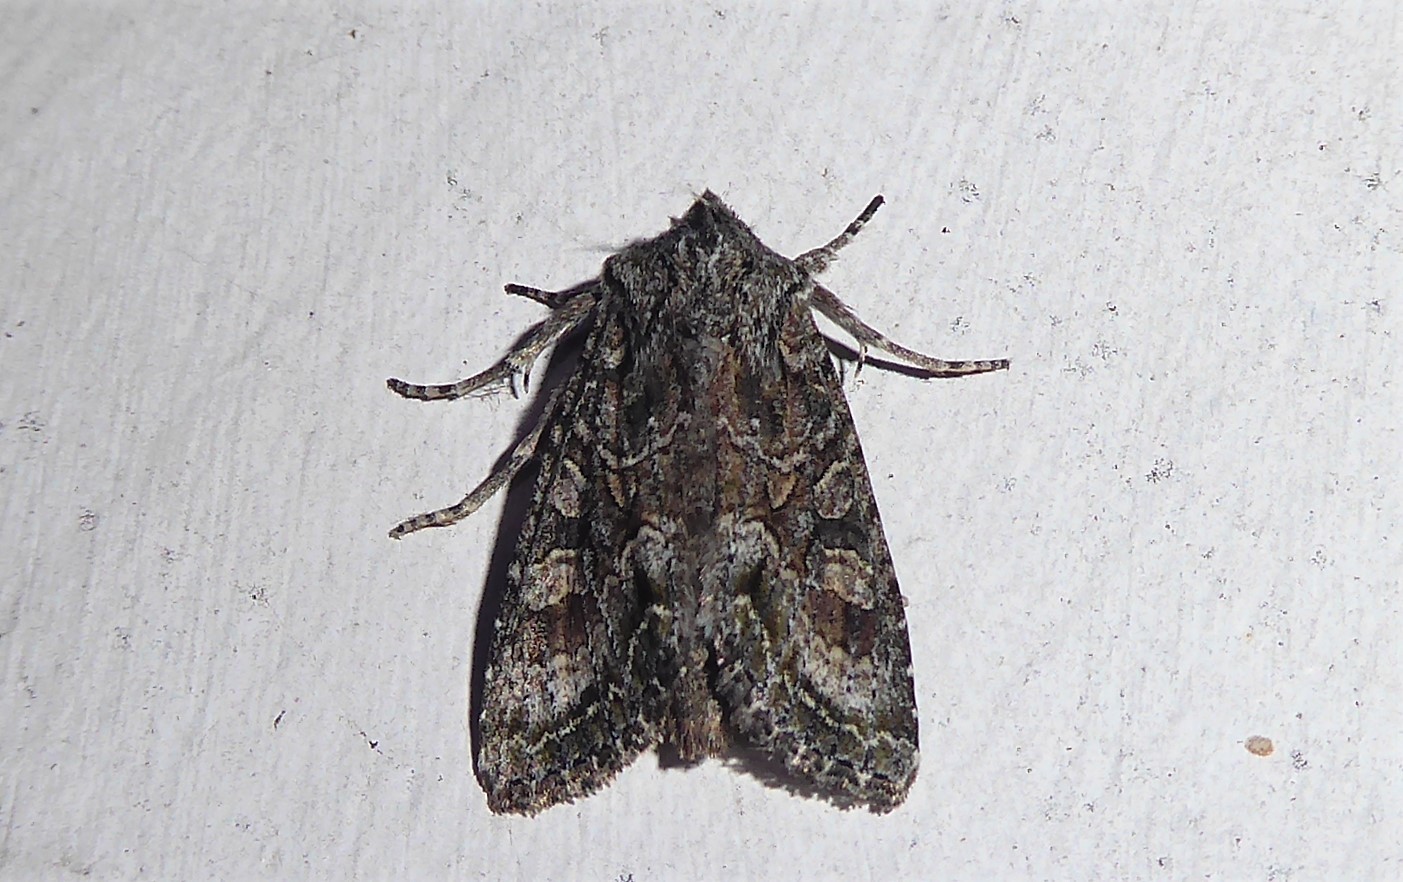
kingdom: Animalia
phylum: Arthropoda
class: Insecta
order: Lepidoptera
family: Noctuidae
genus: Ichneutica
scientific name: Ichneutica mutans
